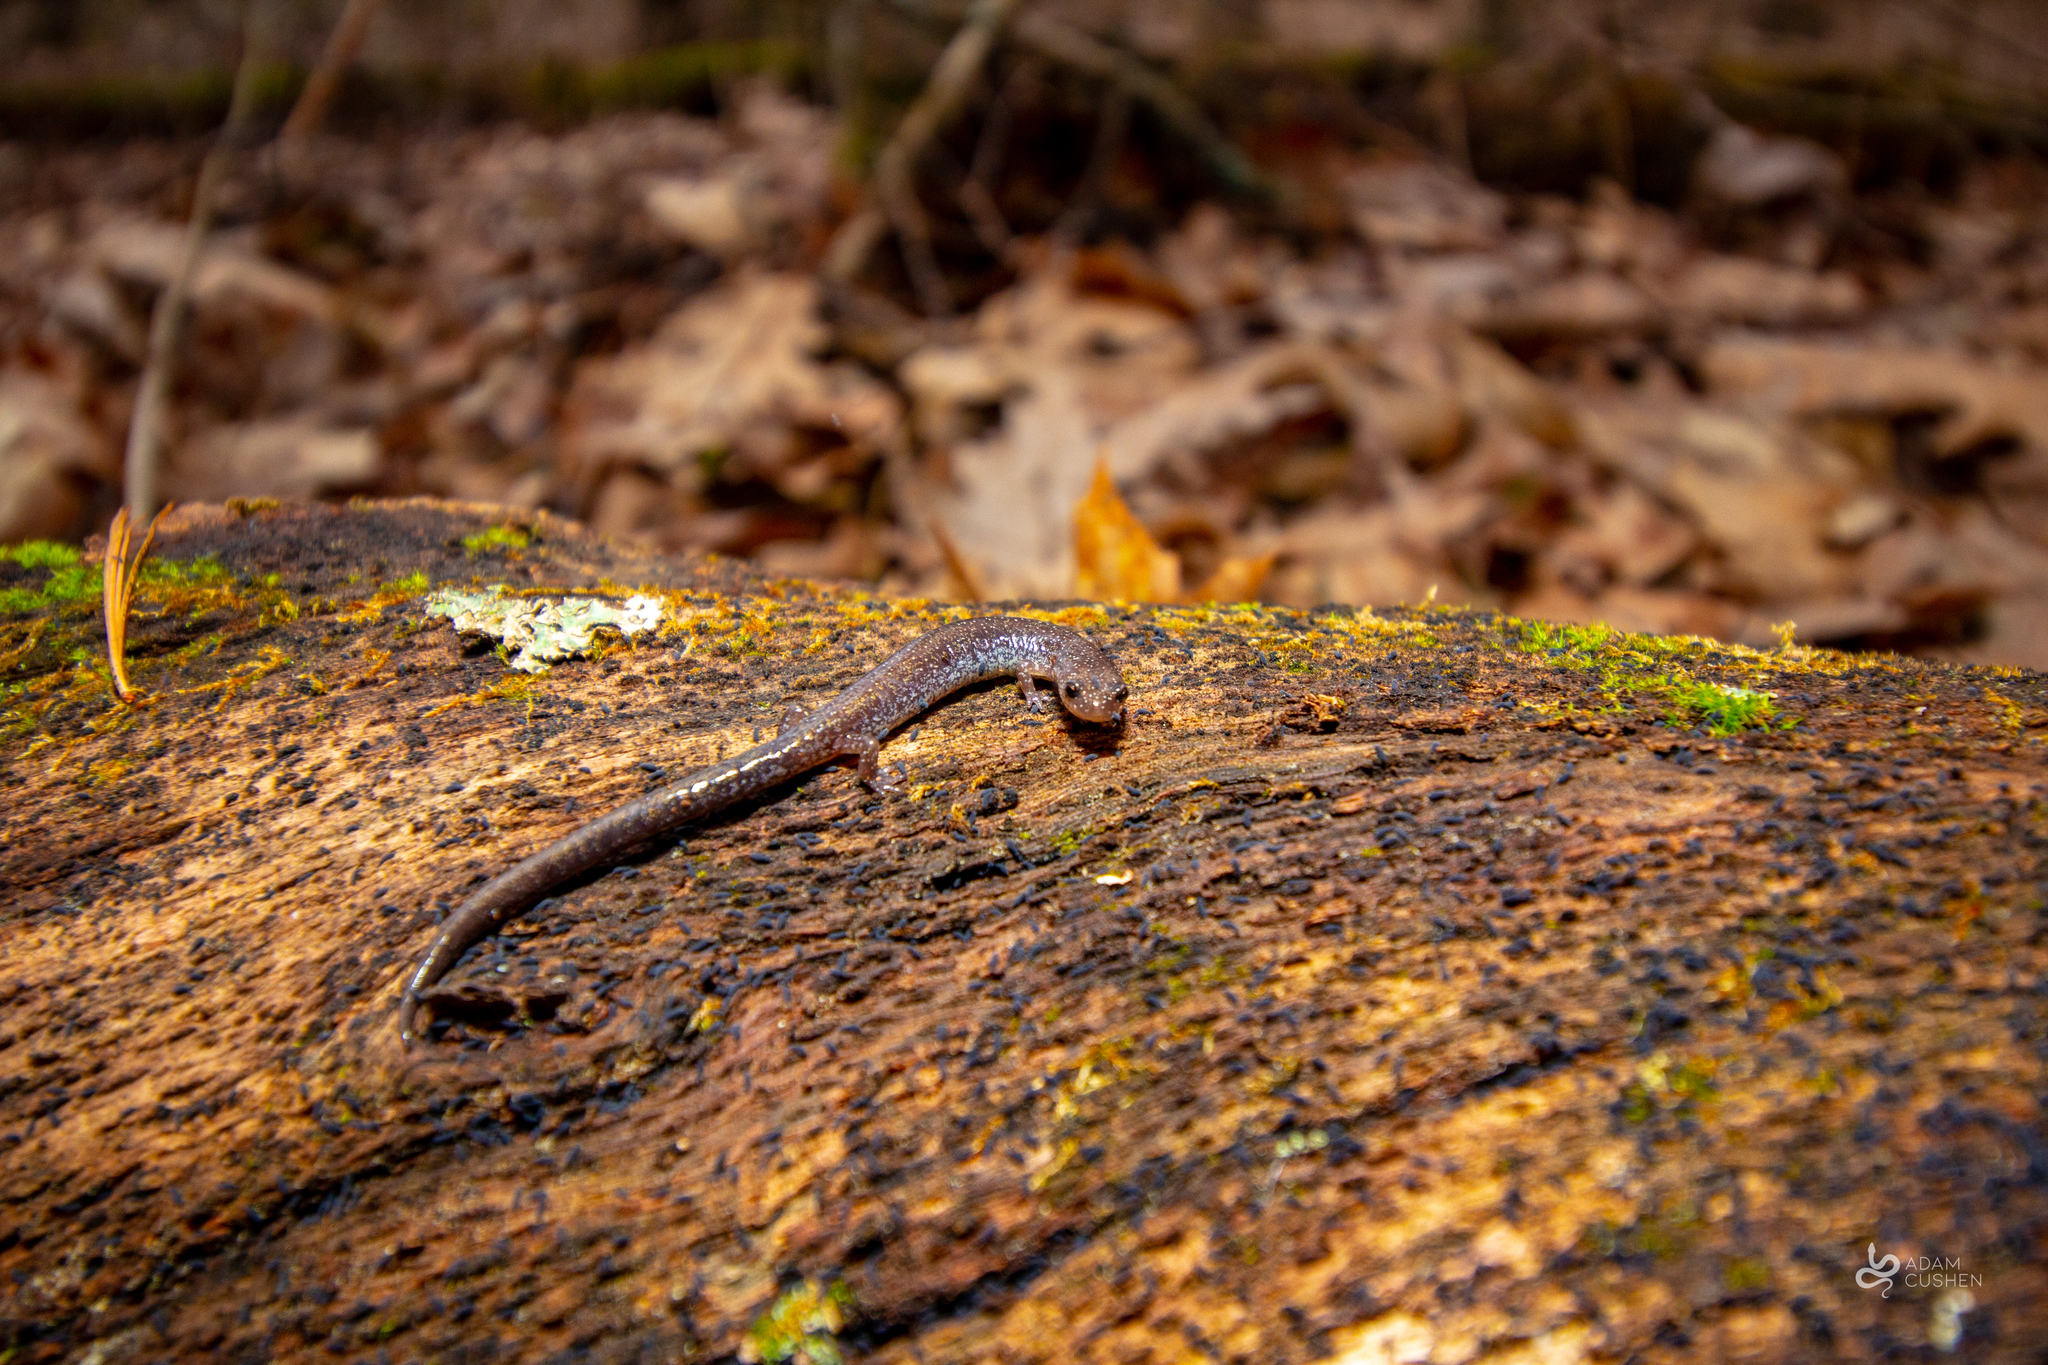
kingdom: Animalia
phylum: Chordata
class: Amphibia
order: Caudata
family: Plethodontidae
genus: Plethodon
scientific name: Plethodon cinereus
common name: Redback salamander
